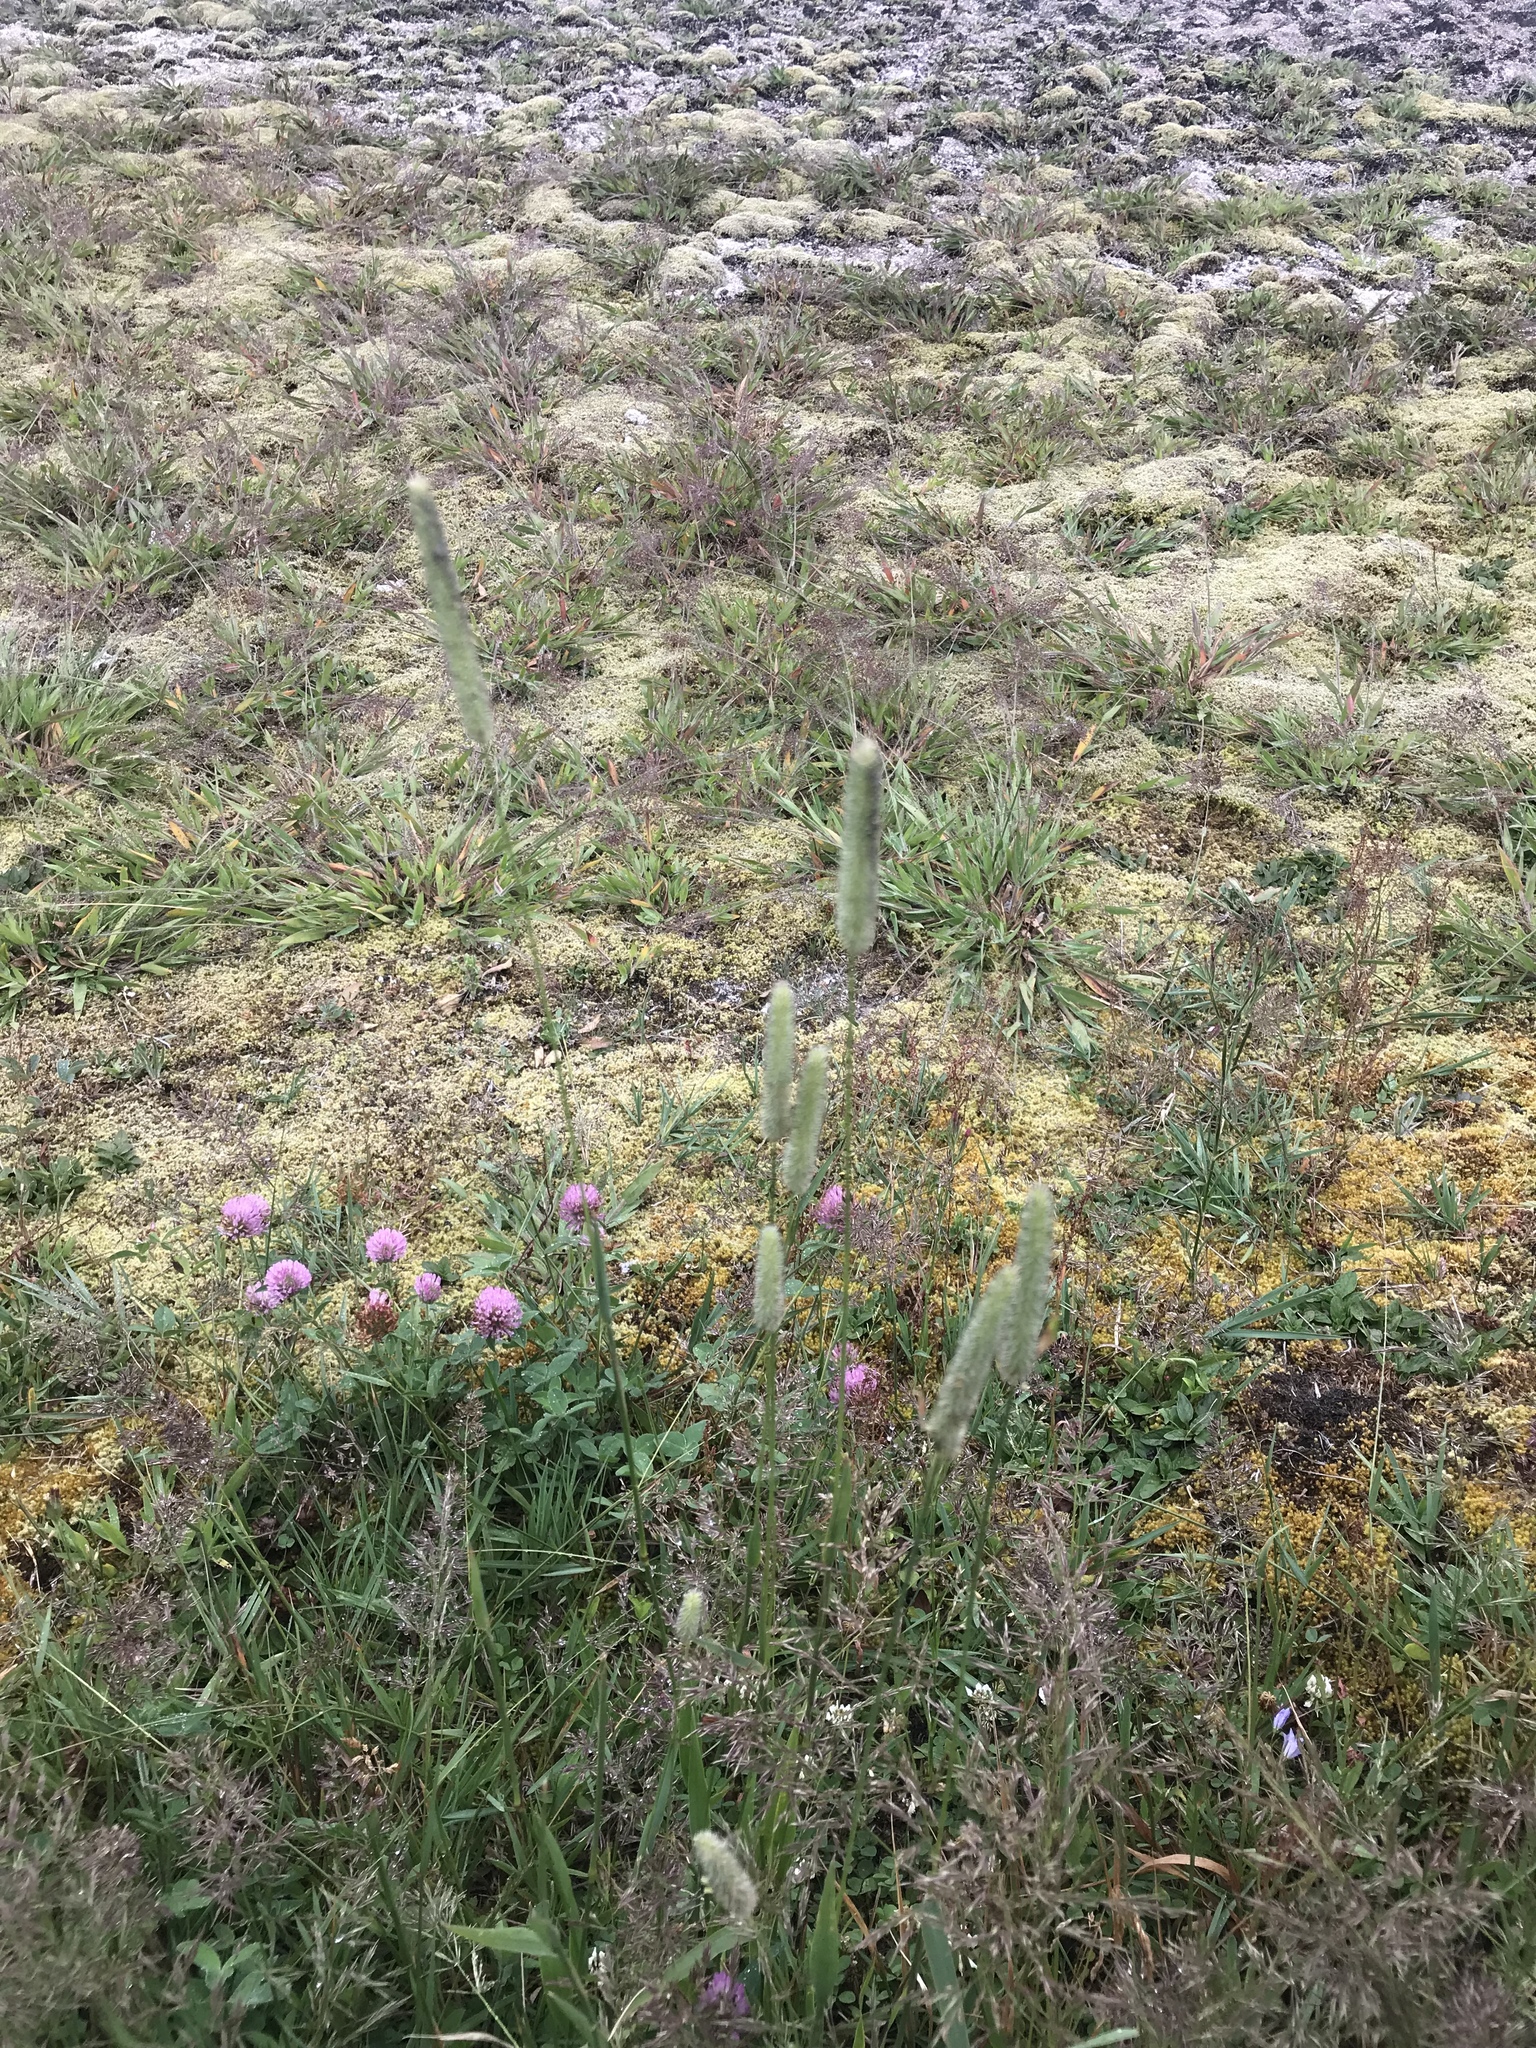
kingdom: Plantae
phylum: Tracheophyta
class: Magnoliopsida
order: Fabales
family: Fabaceae
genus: Trifolium
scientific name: Trifolium pratense
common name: Red clover
